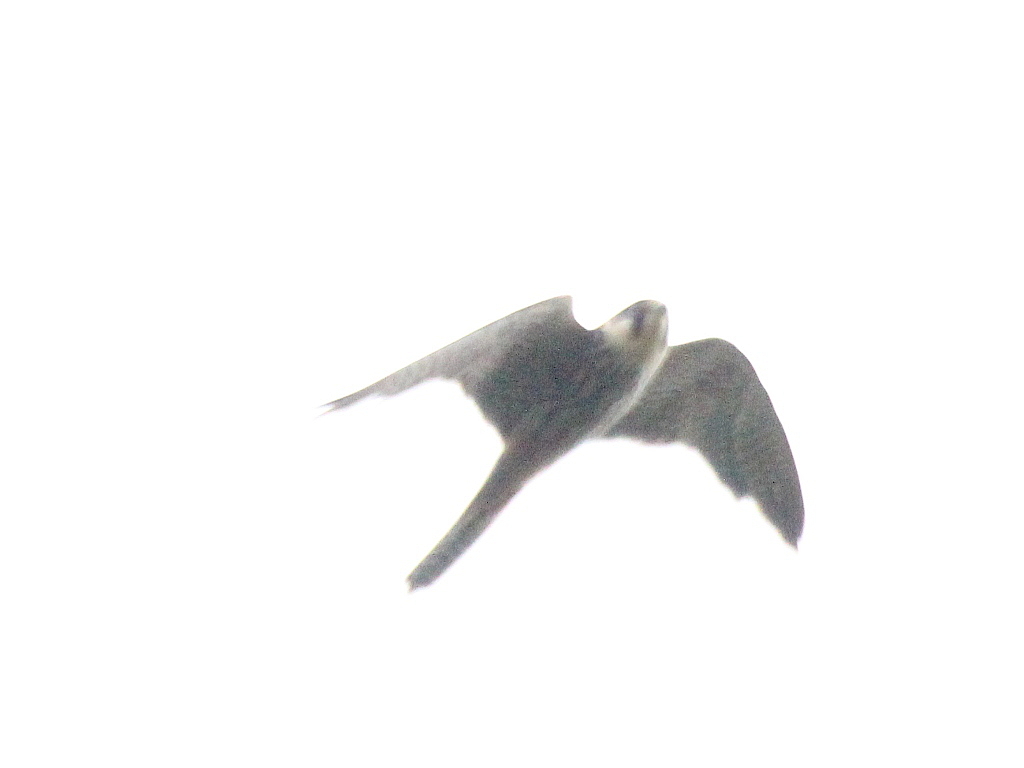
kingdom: Animalia
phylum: Chordata
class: Aves
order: Falconiformes
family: Falconidae
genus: Falco
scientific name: Falco subbuteo
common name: Eurasian hobby
